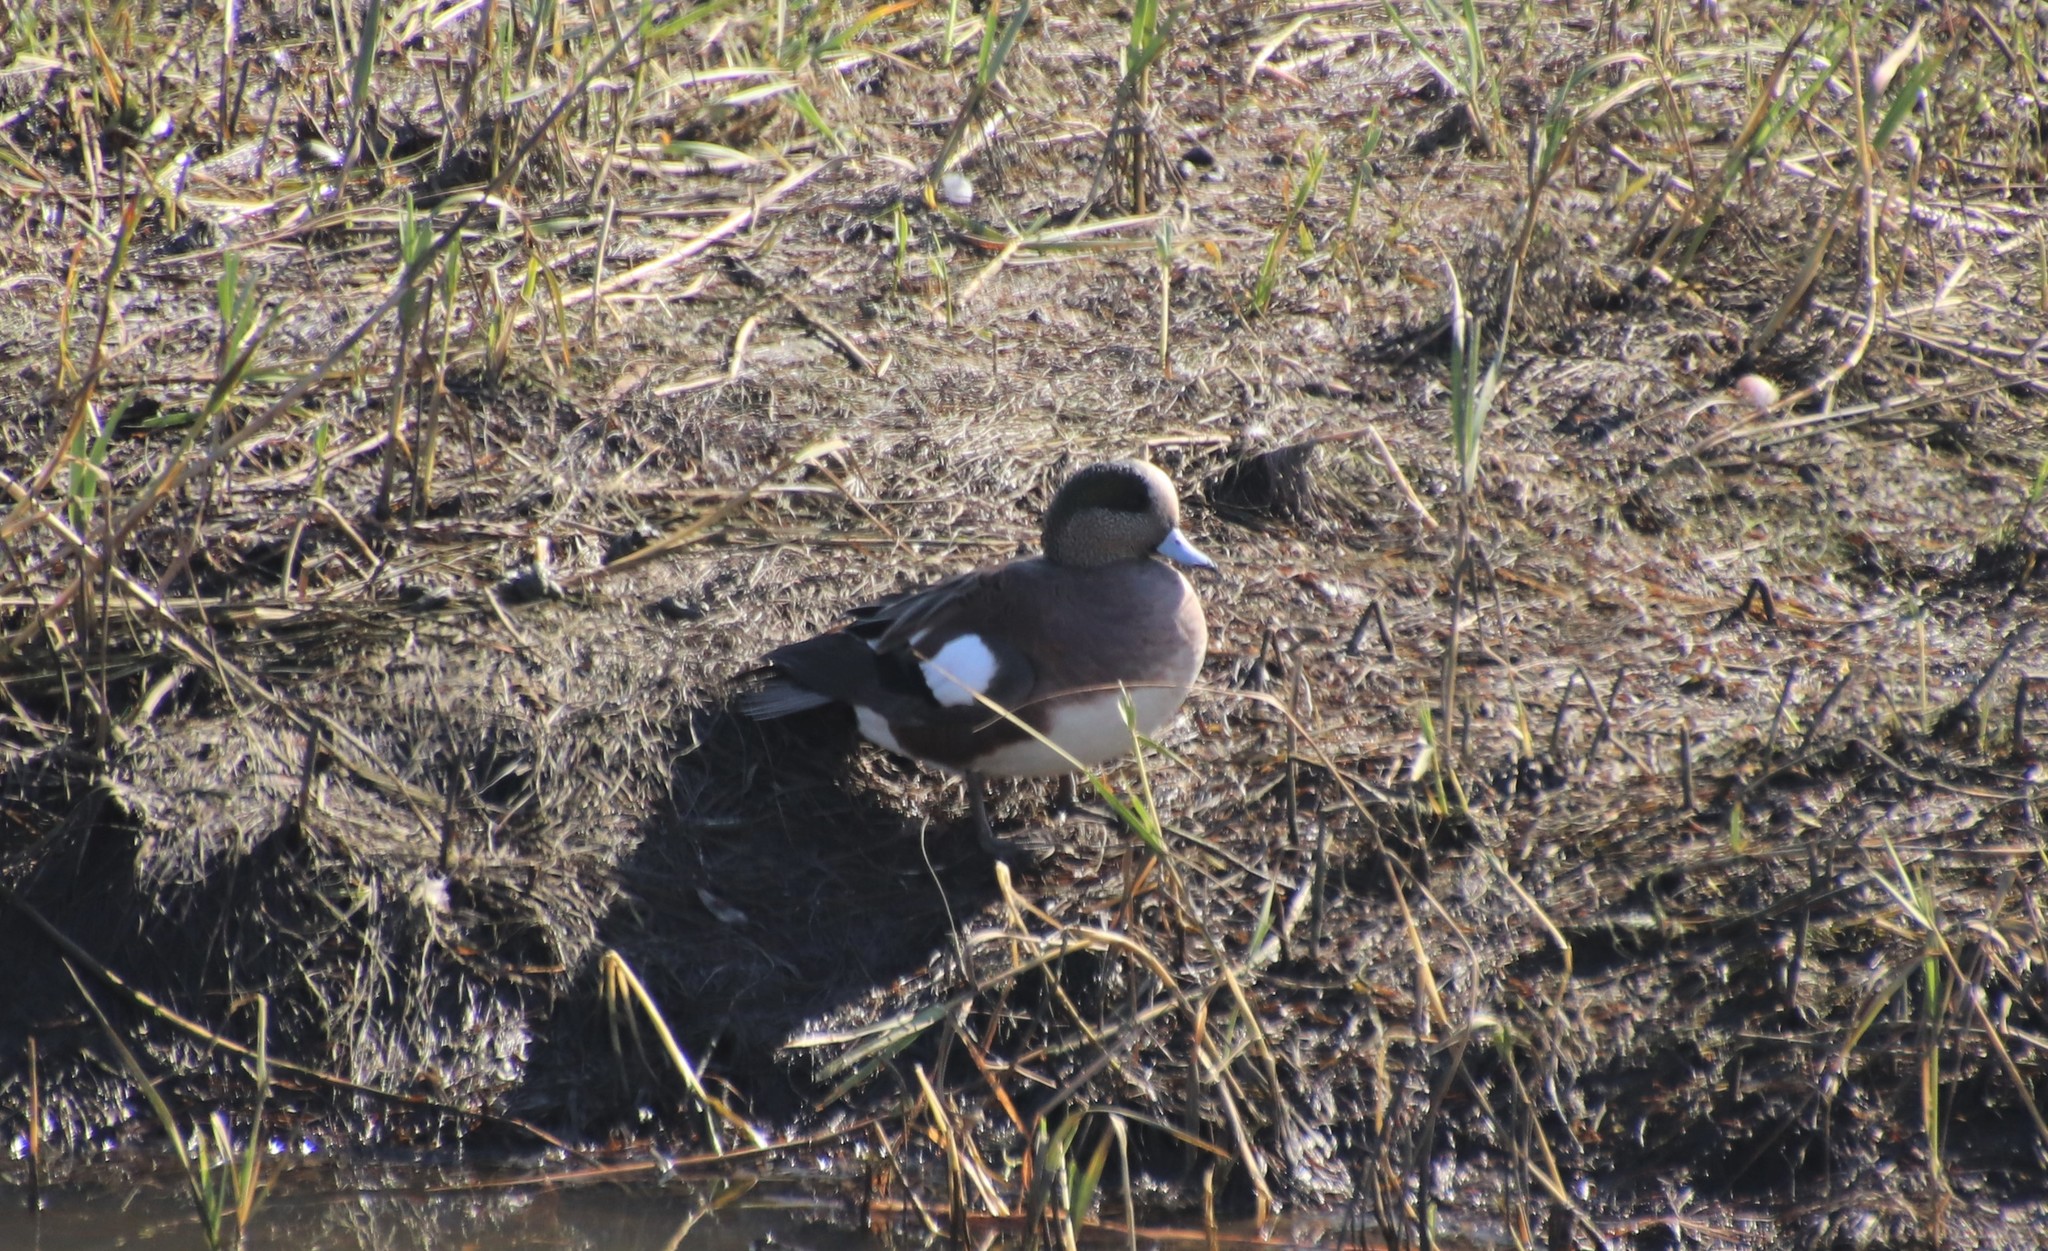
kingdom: Animalia
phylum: Chordata
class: Aves
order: Anseriformes
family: Anatidae
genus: Mareca
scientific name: Mareca americana
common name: American wigeon
